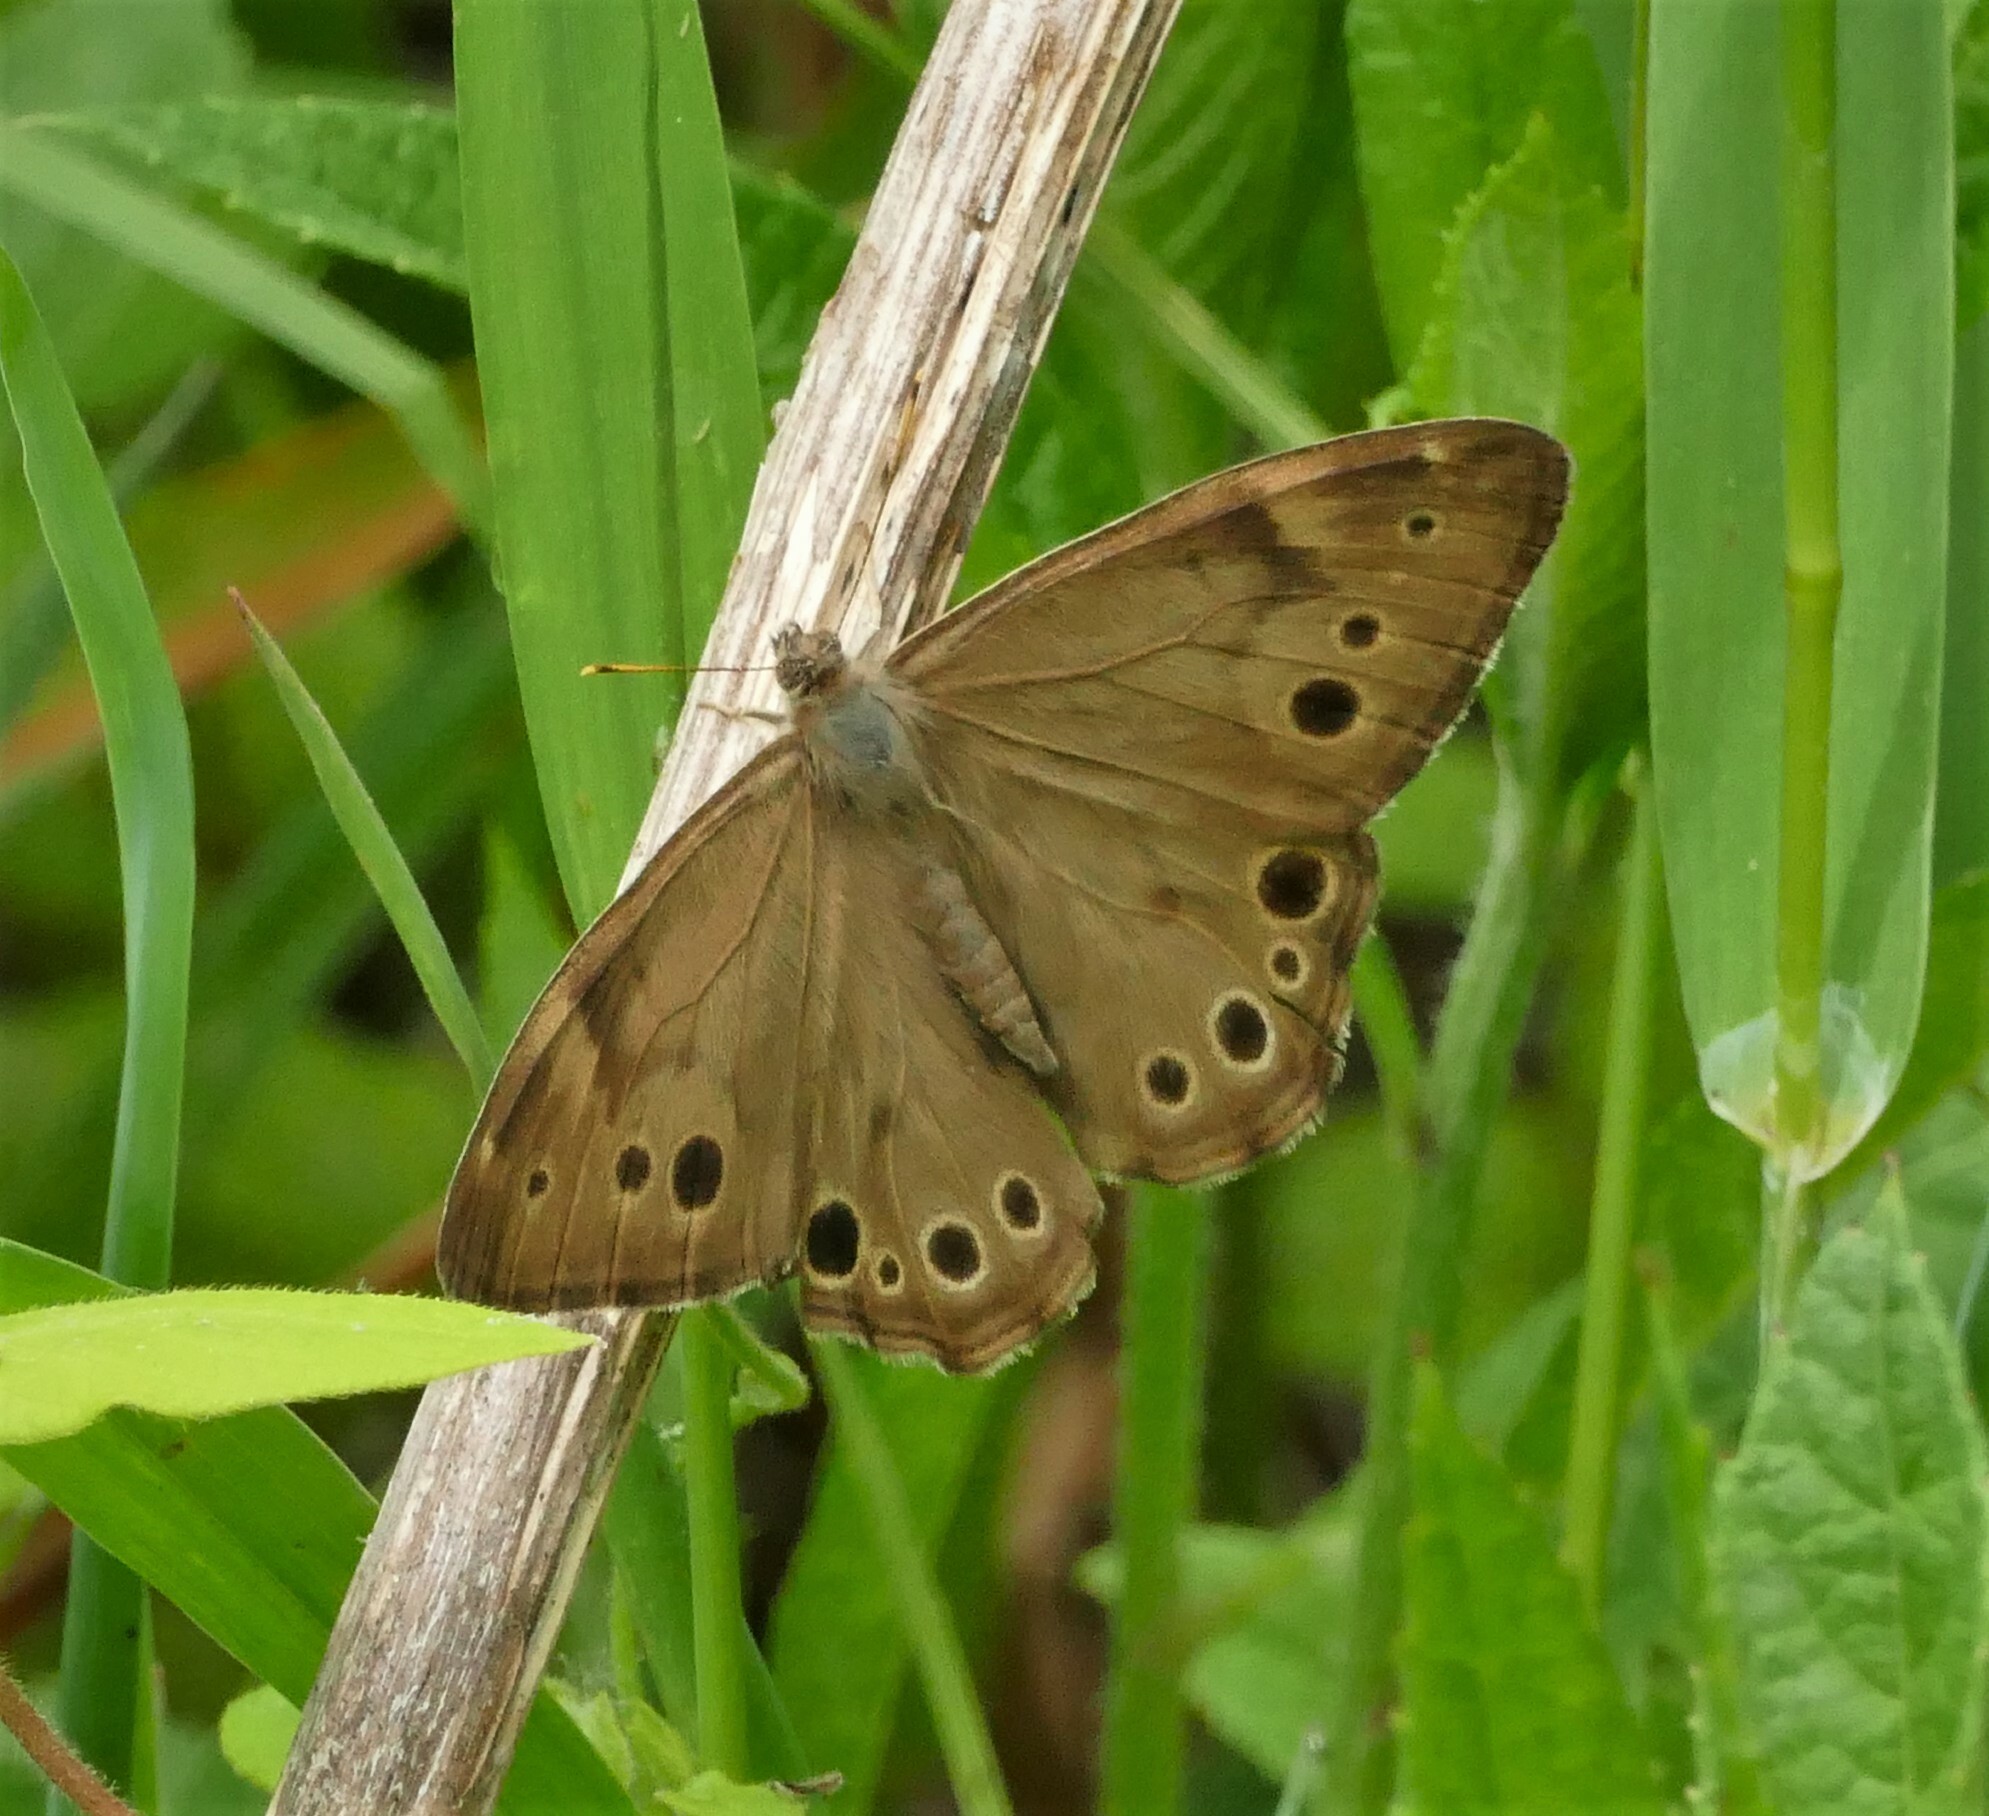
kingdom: Animalia
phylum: Arthropoda
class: Insecta
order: Lepidoptera
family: Nymphalidae
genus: Lethe
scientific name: Lethe anthedon
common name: Northern pearly-eye
